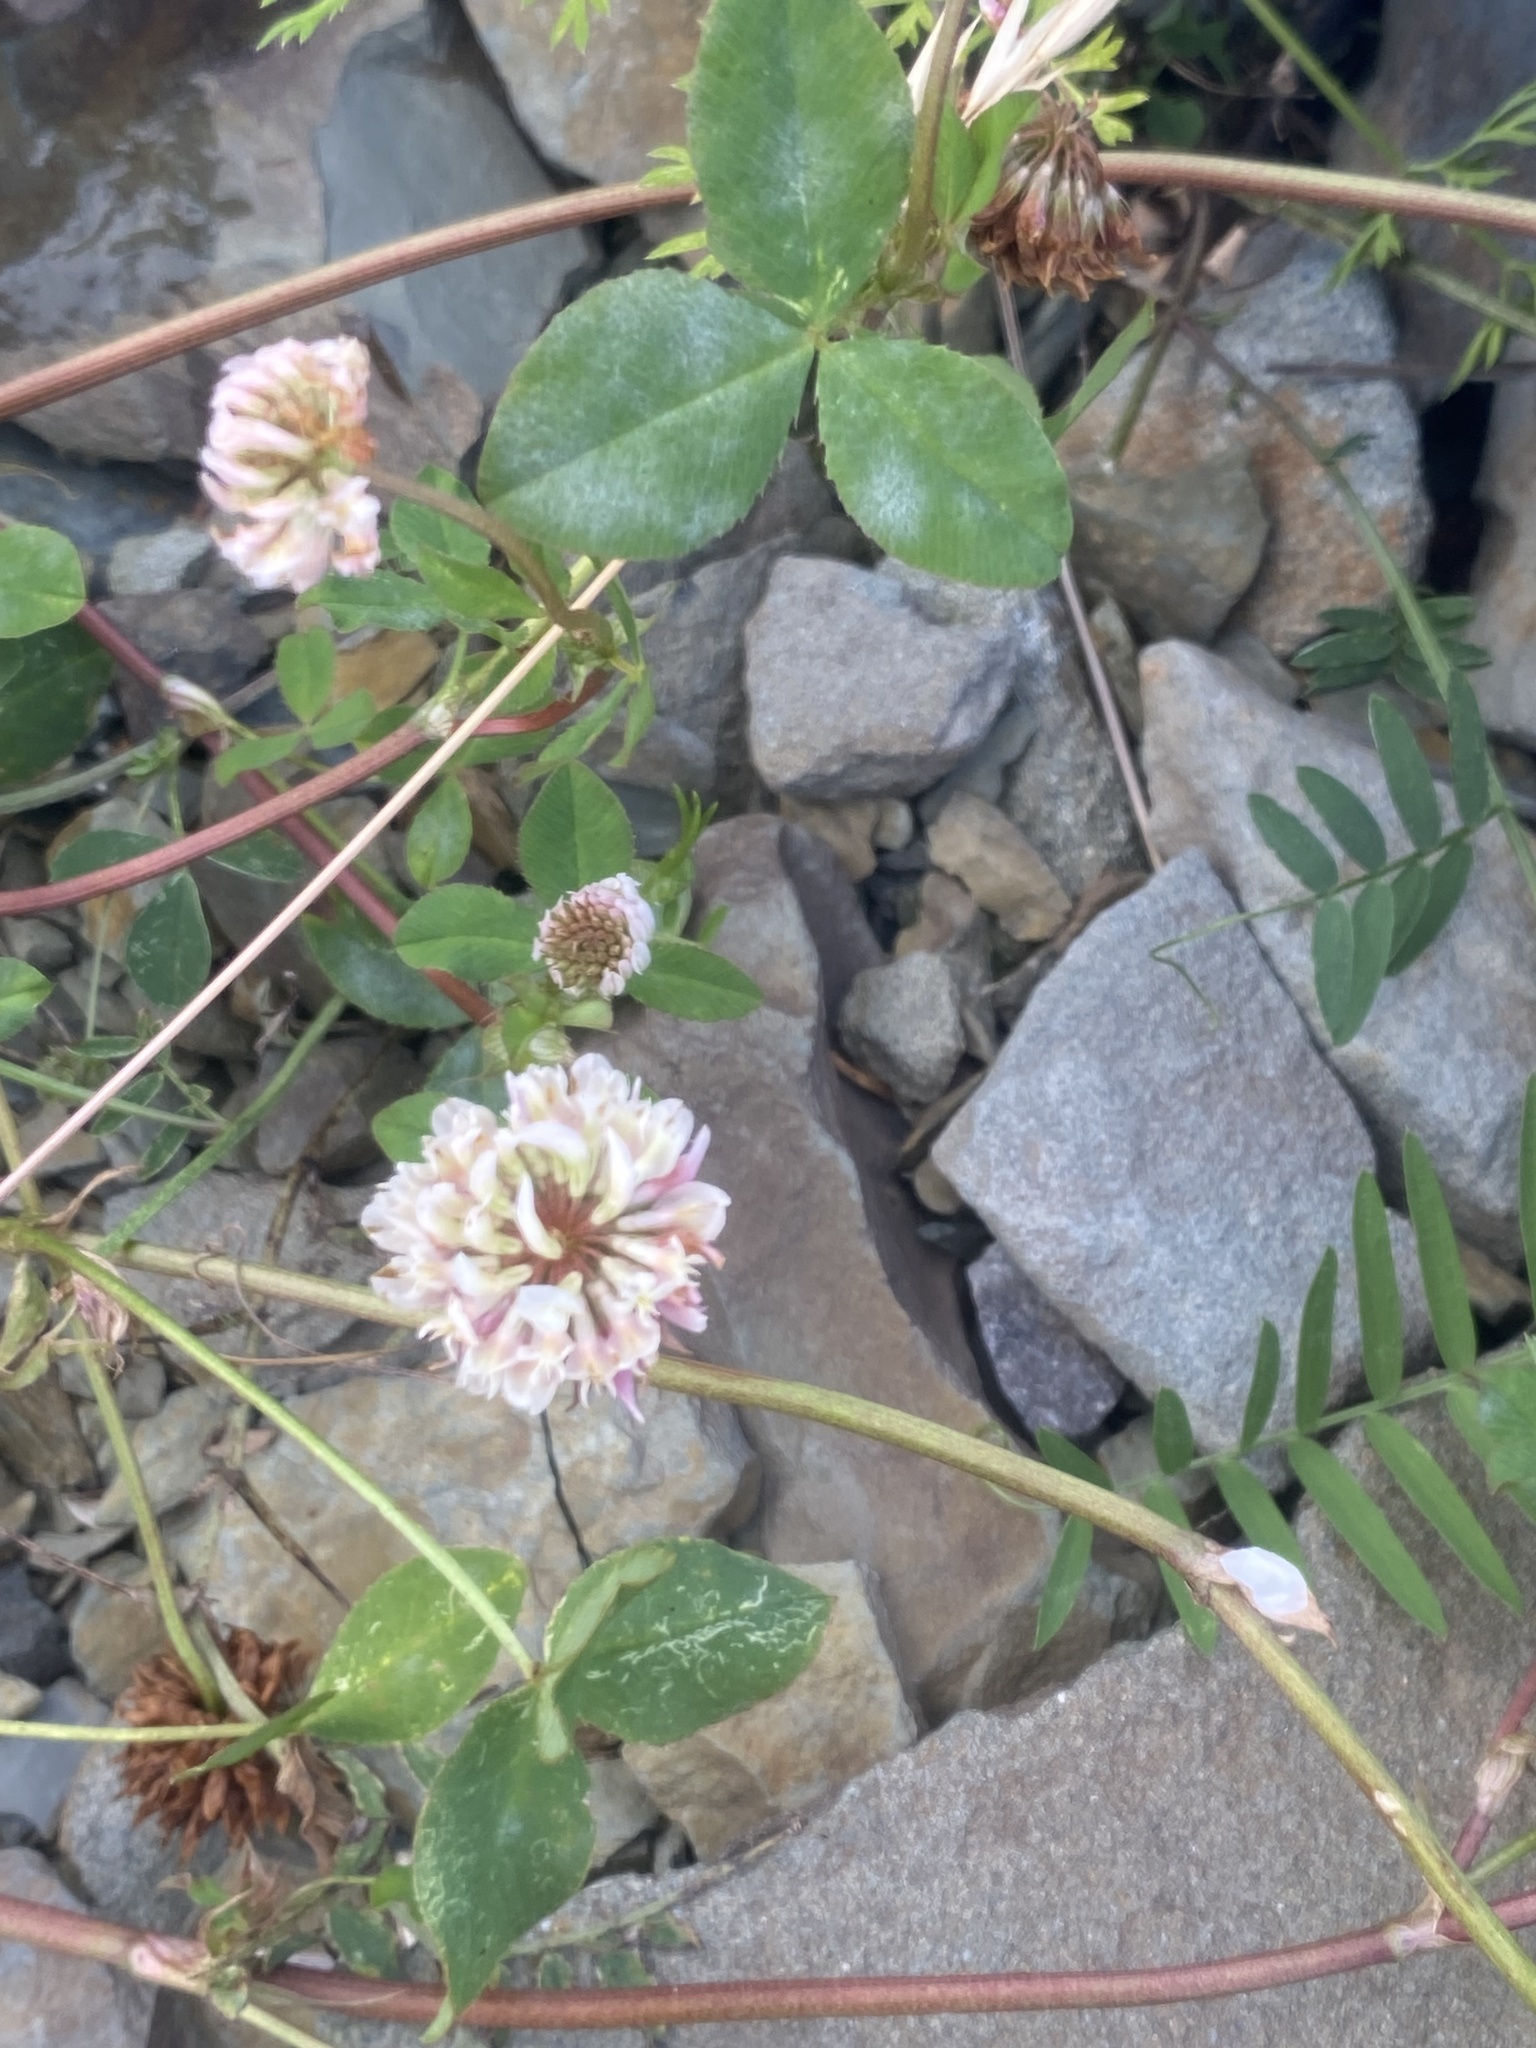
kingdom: Plantae
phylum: Tracheophyta
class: Magnoliopsida
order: Fabales
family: Fabaceae
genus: Trifolium
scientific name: Trifolium hybridum
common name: Alsike clover
